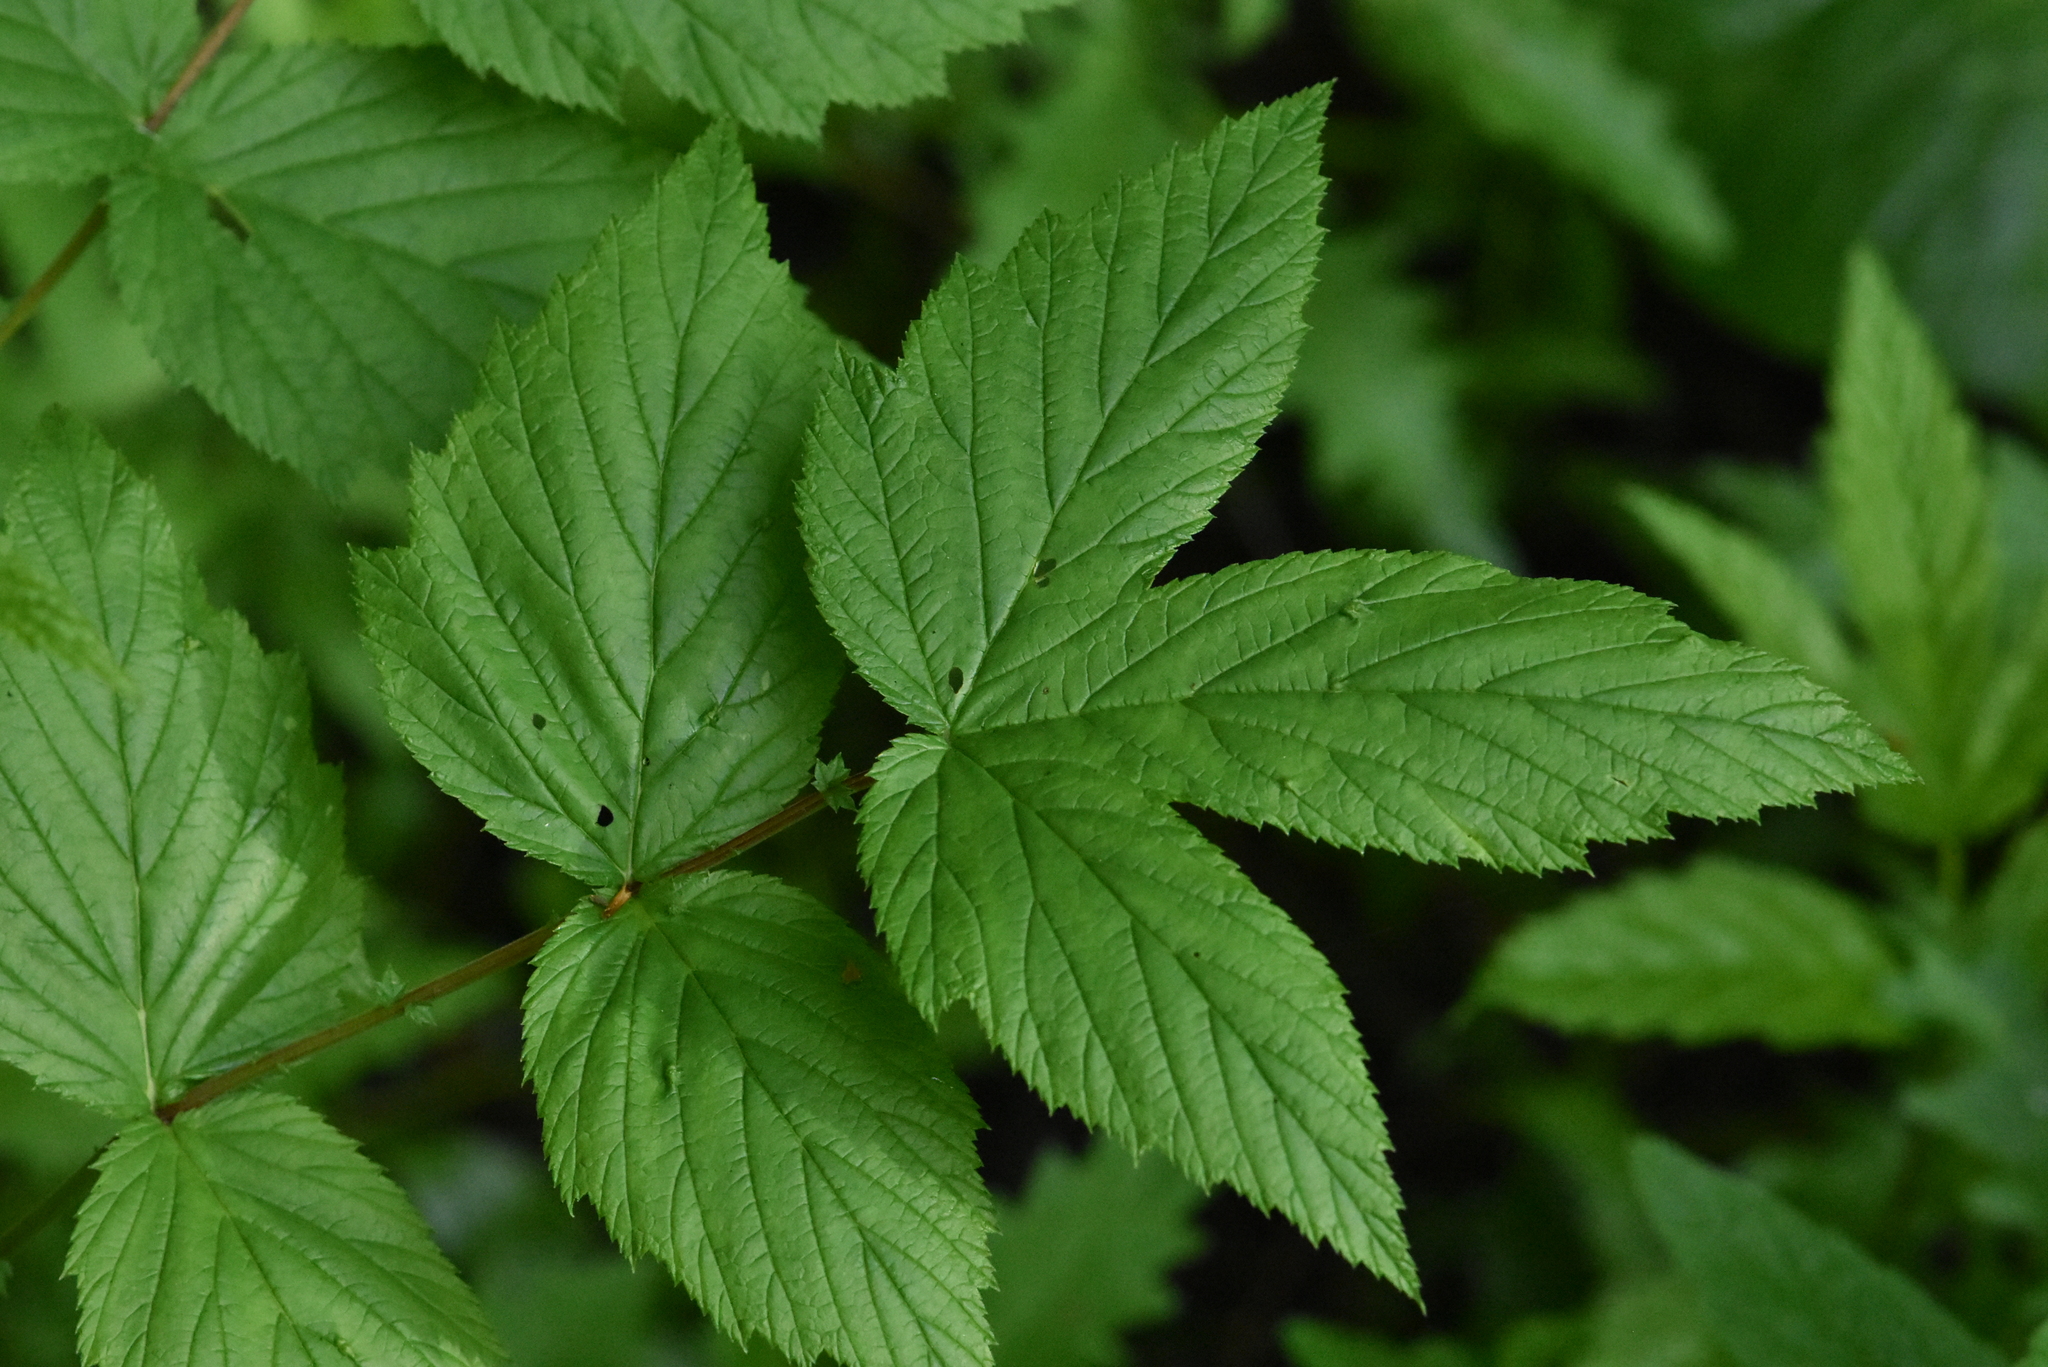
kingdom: Plantae
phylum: Tracheophyta
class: Magnoliopsida
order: Rosales
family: Rosaceae
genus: Filipendula
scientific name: Filipendula ulmaria
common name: Meadowsweet
